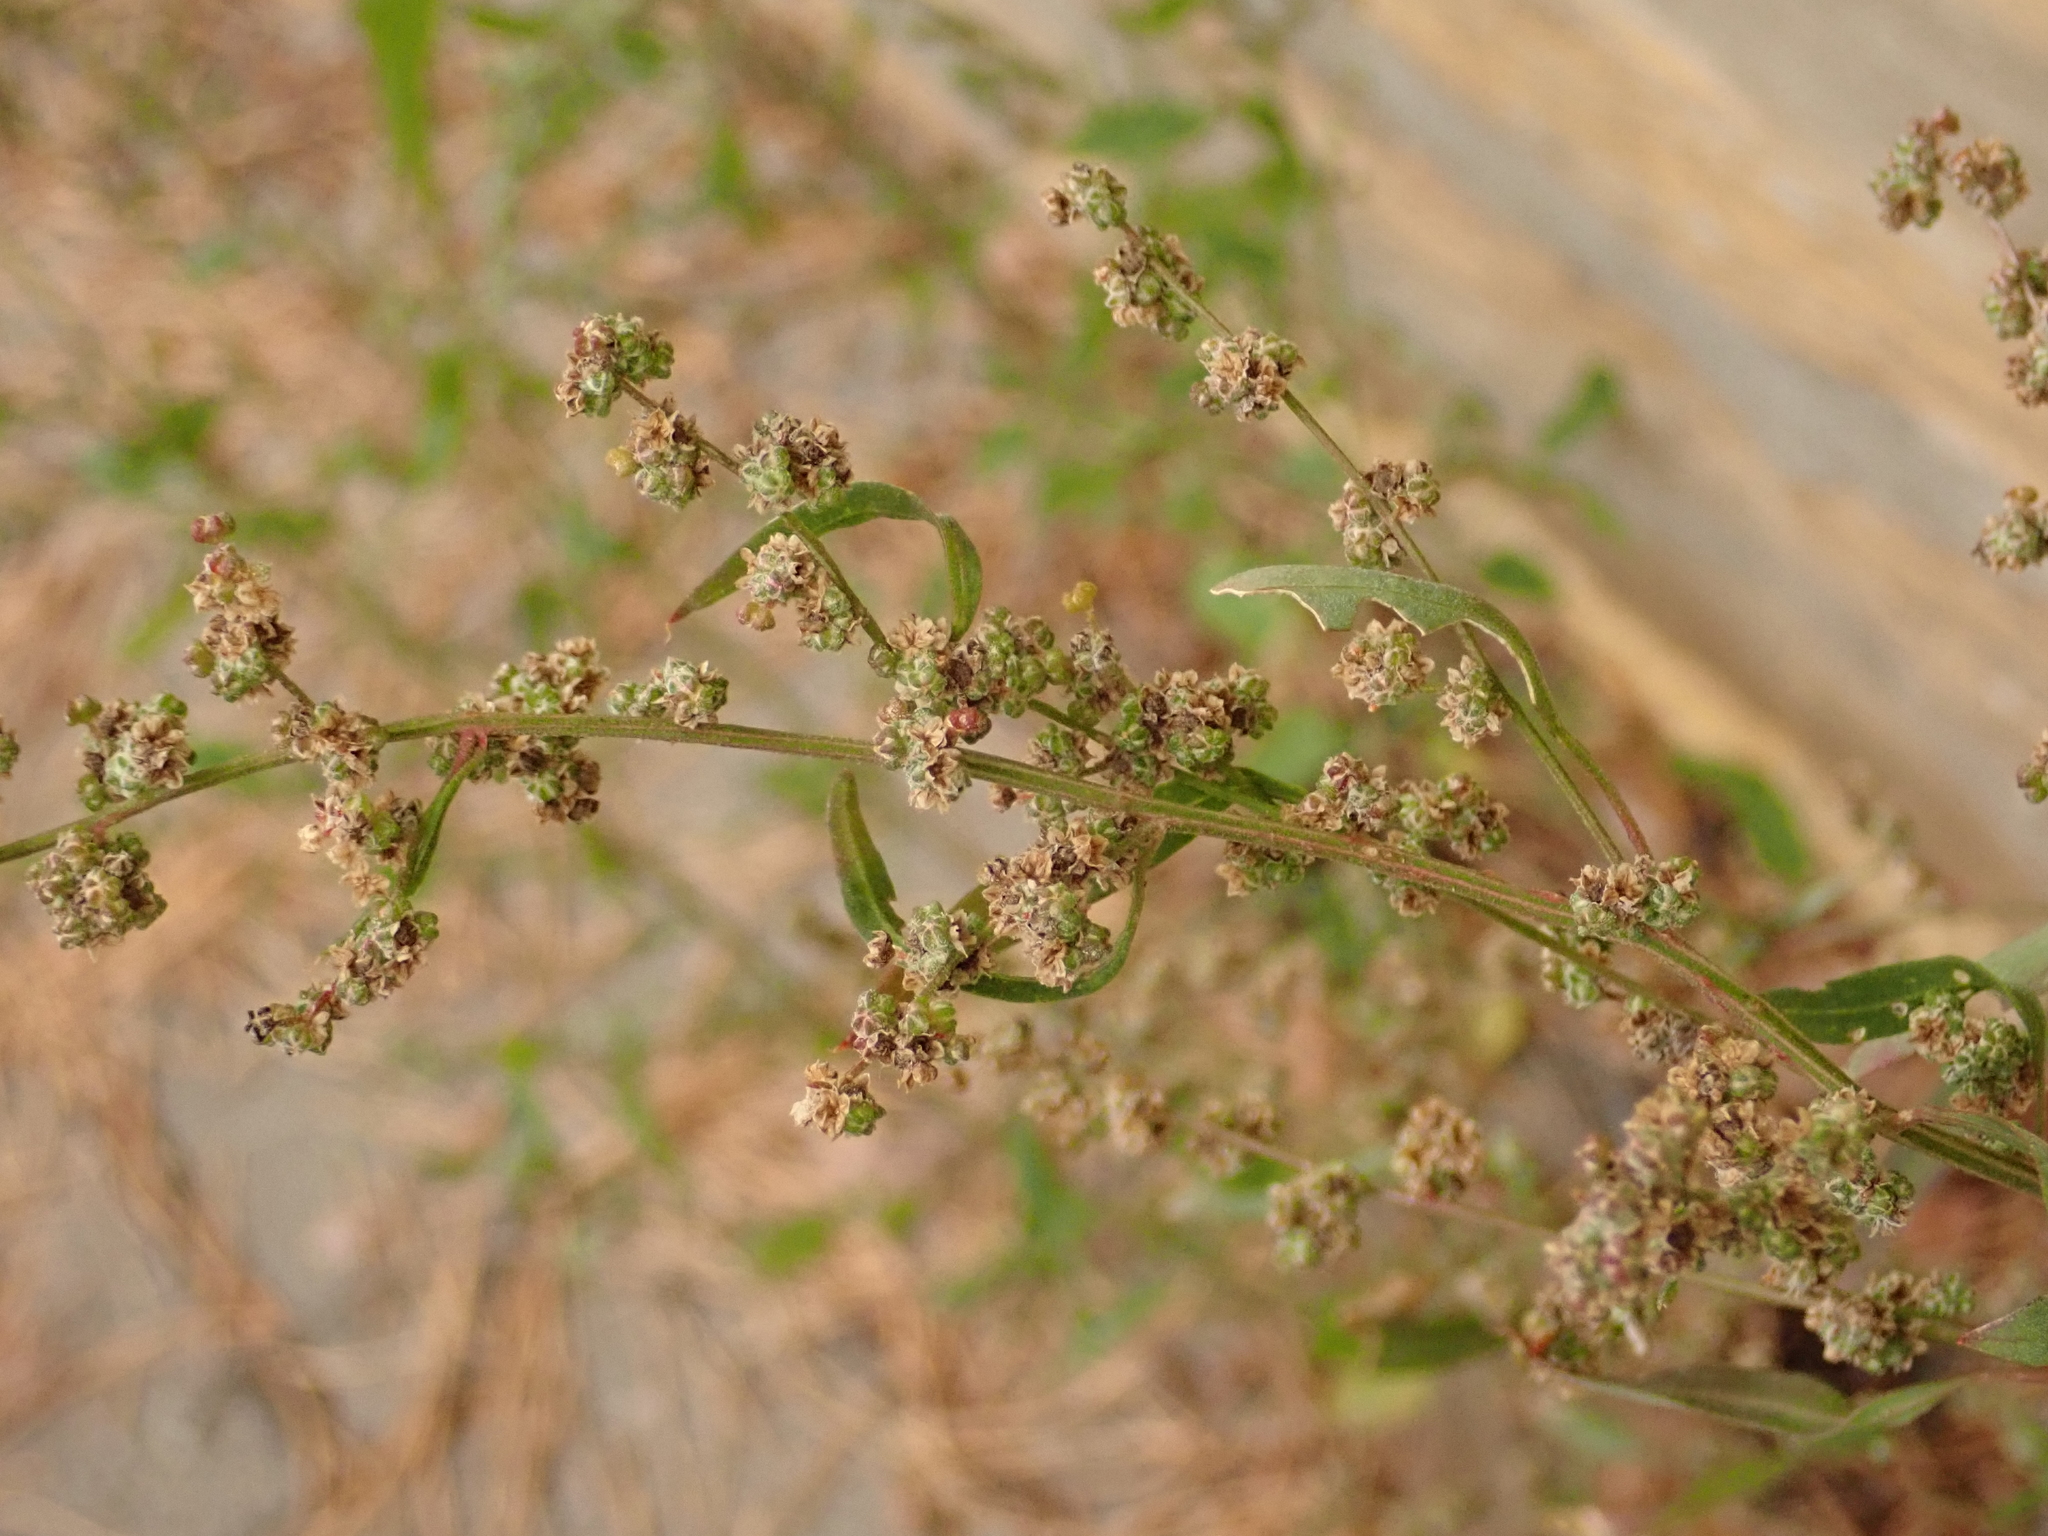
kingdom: Plantae
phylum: Tracheophyta
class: Magnoliopsida
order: Caryophyllales
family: Amaranthaceae
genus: Chenopodium
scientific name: Chenopodium album
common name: Fat-hen
